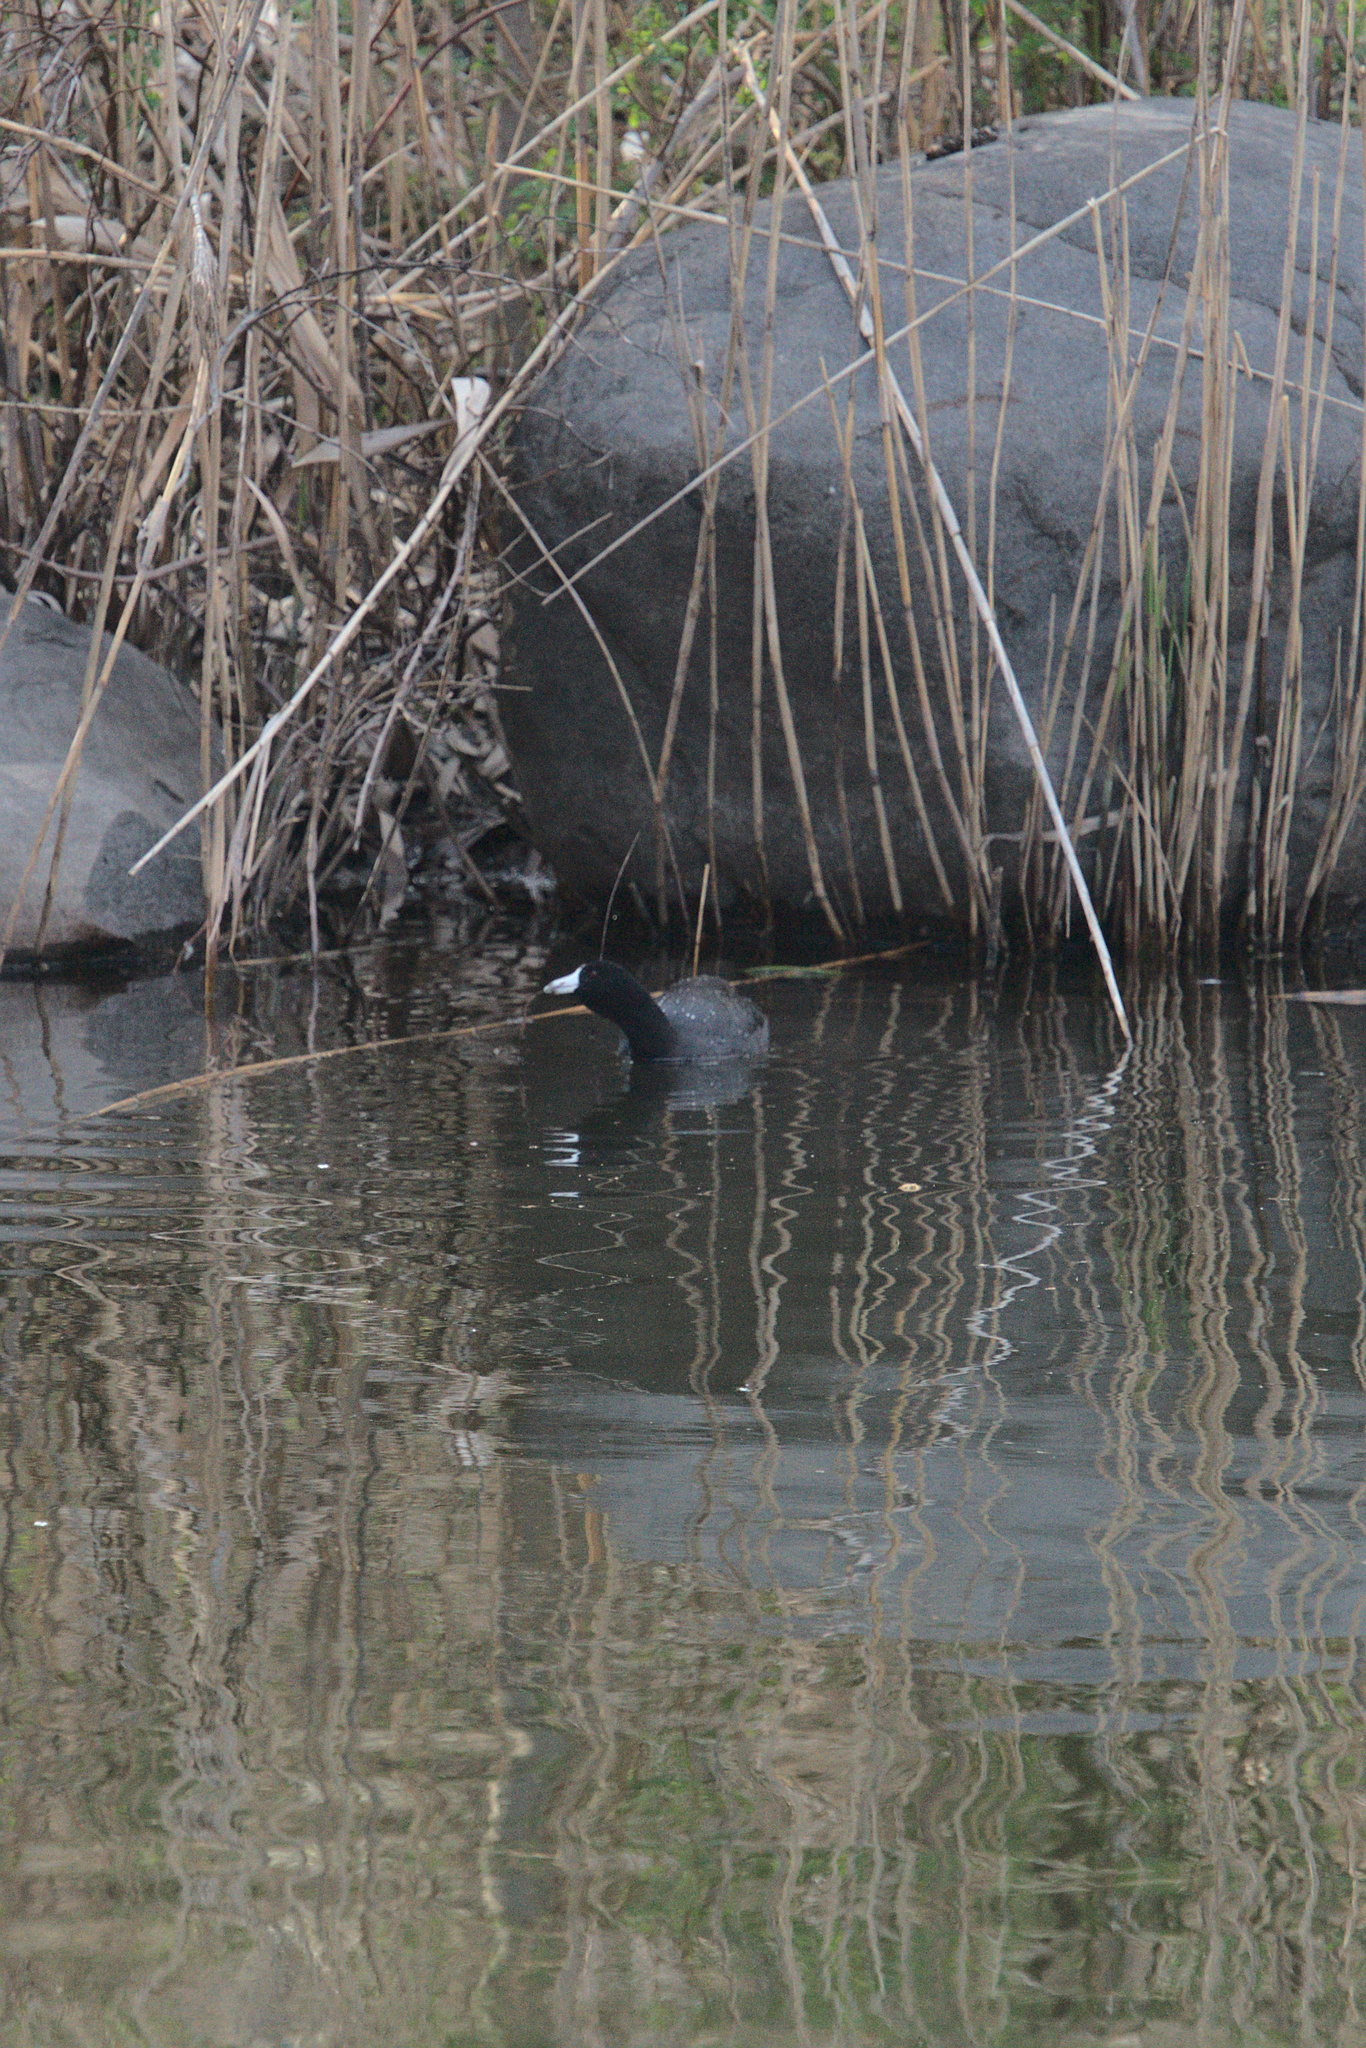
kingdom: Animalia
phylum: Chordata
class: Aves
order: Gruiformes
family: Rallidae
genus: Fulica
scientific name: Fulica americana
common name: American coot
